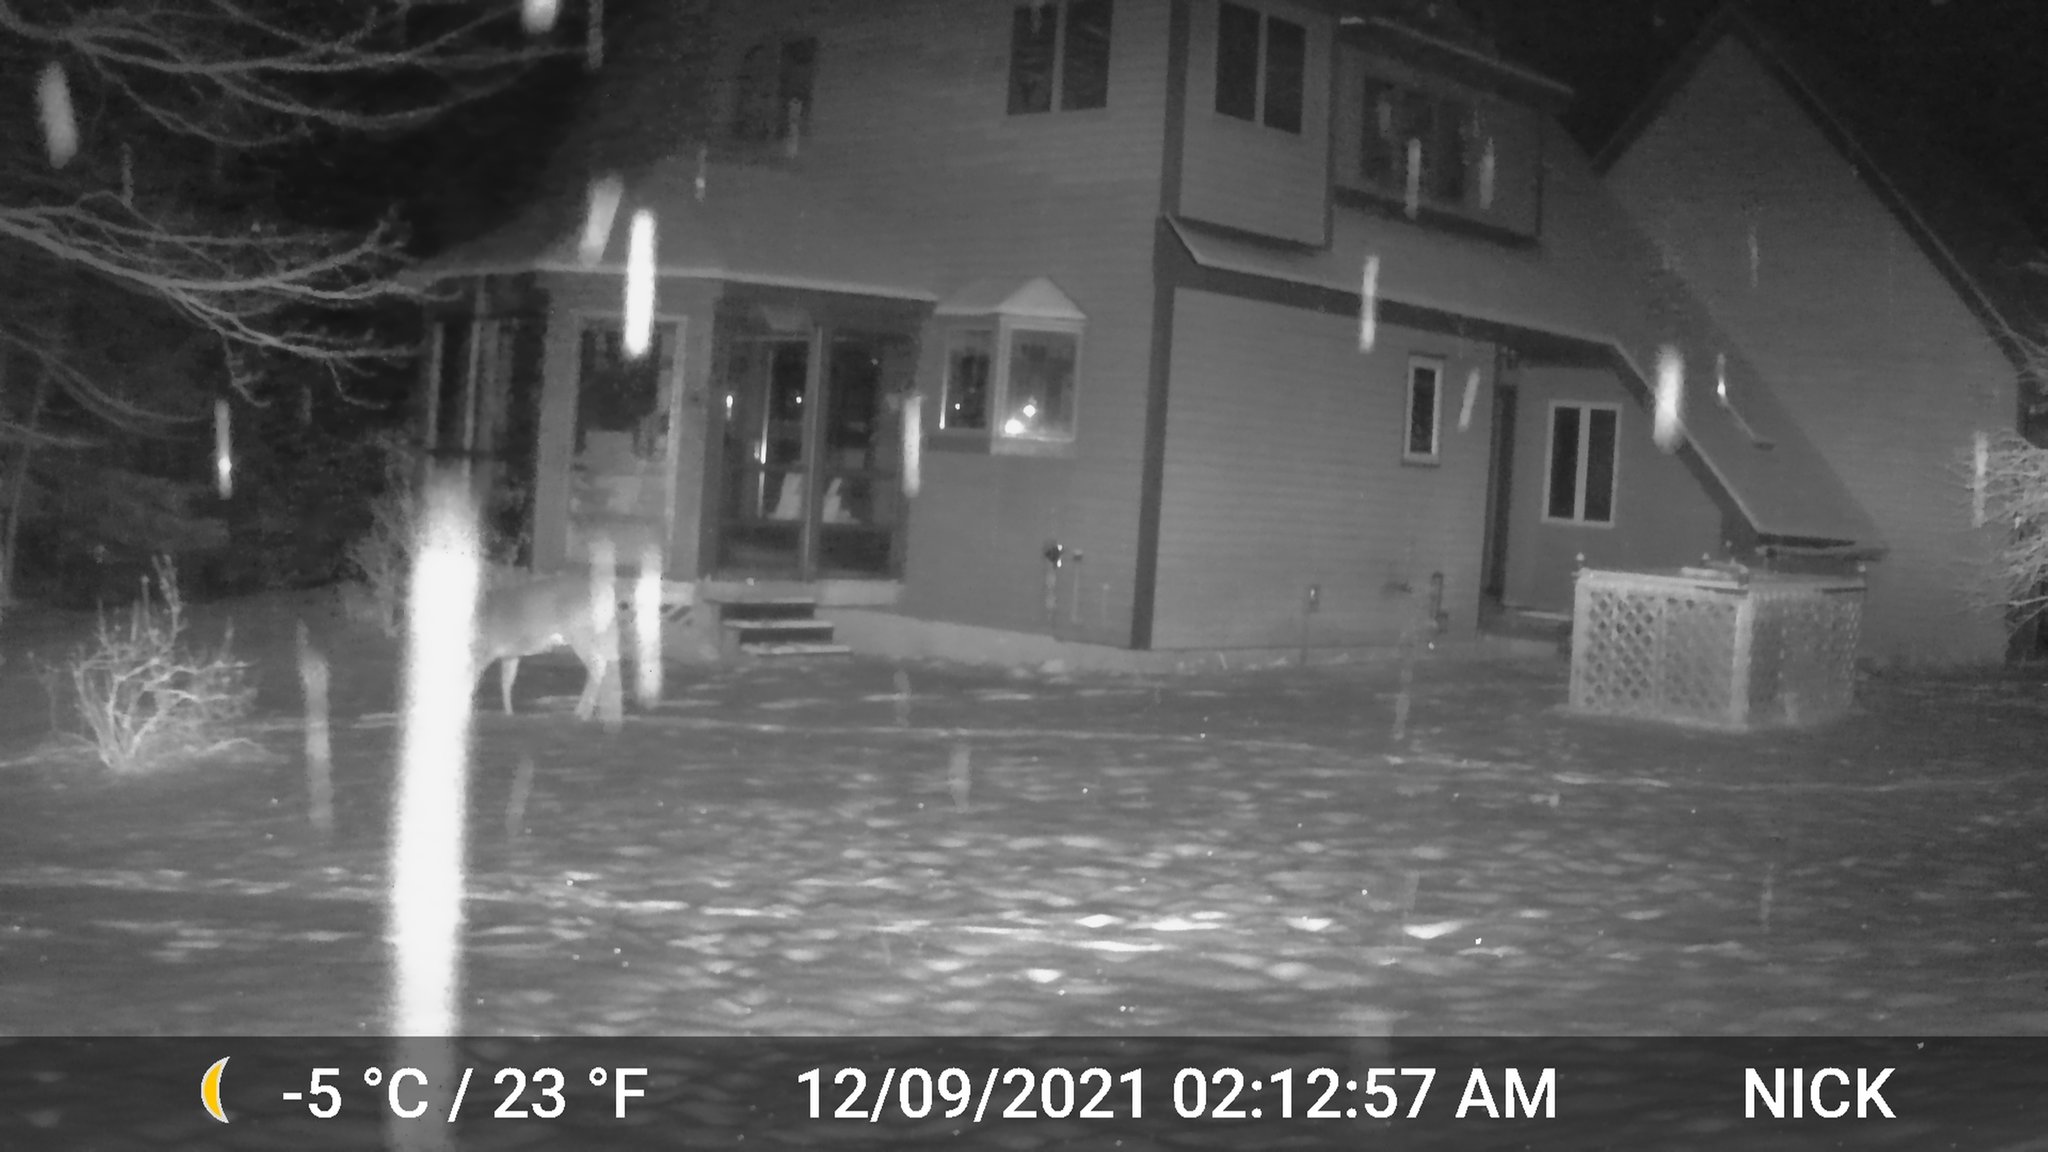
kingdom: Animalia
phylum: Chordata
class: Mammalia
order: Artiodactyla
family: Cervidae
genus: Odocoileus
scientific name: Odocoileus virginianus
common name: White-tailed deer
